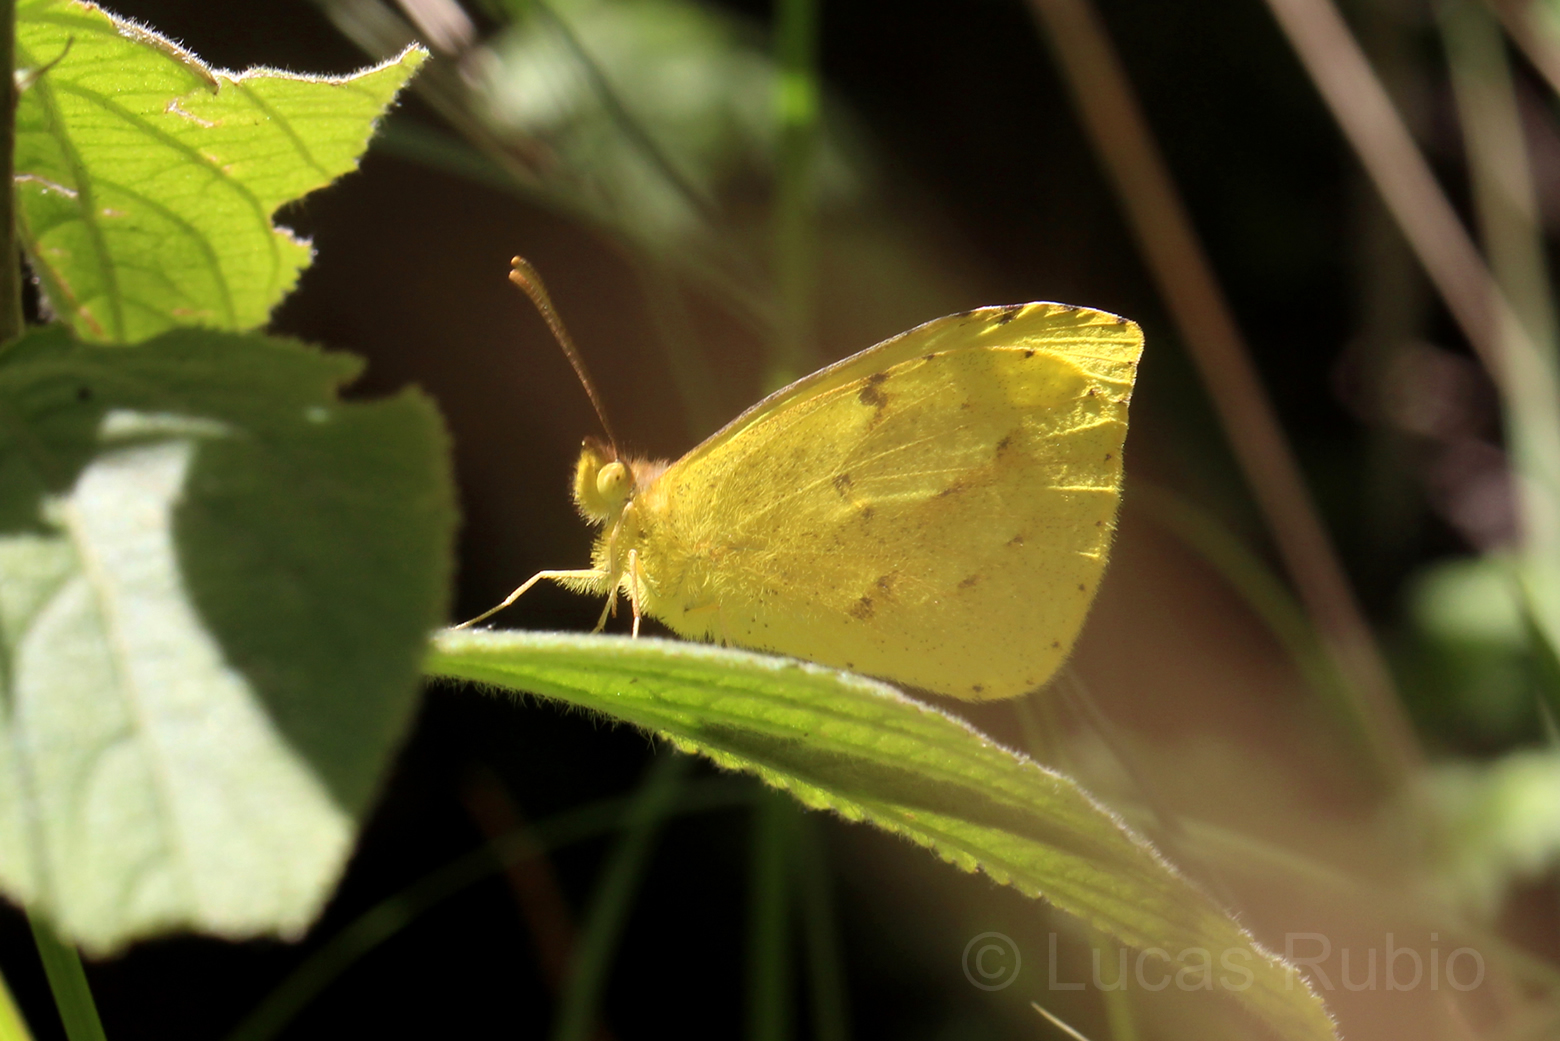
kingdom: Animalia
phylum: Arthropoda
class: Insecta
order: Lepidoptera
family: Pieridae
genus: Teriocolias
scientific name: Teriocolias zelia
